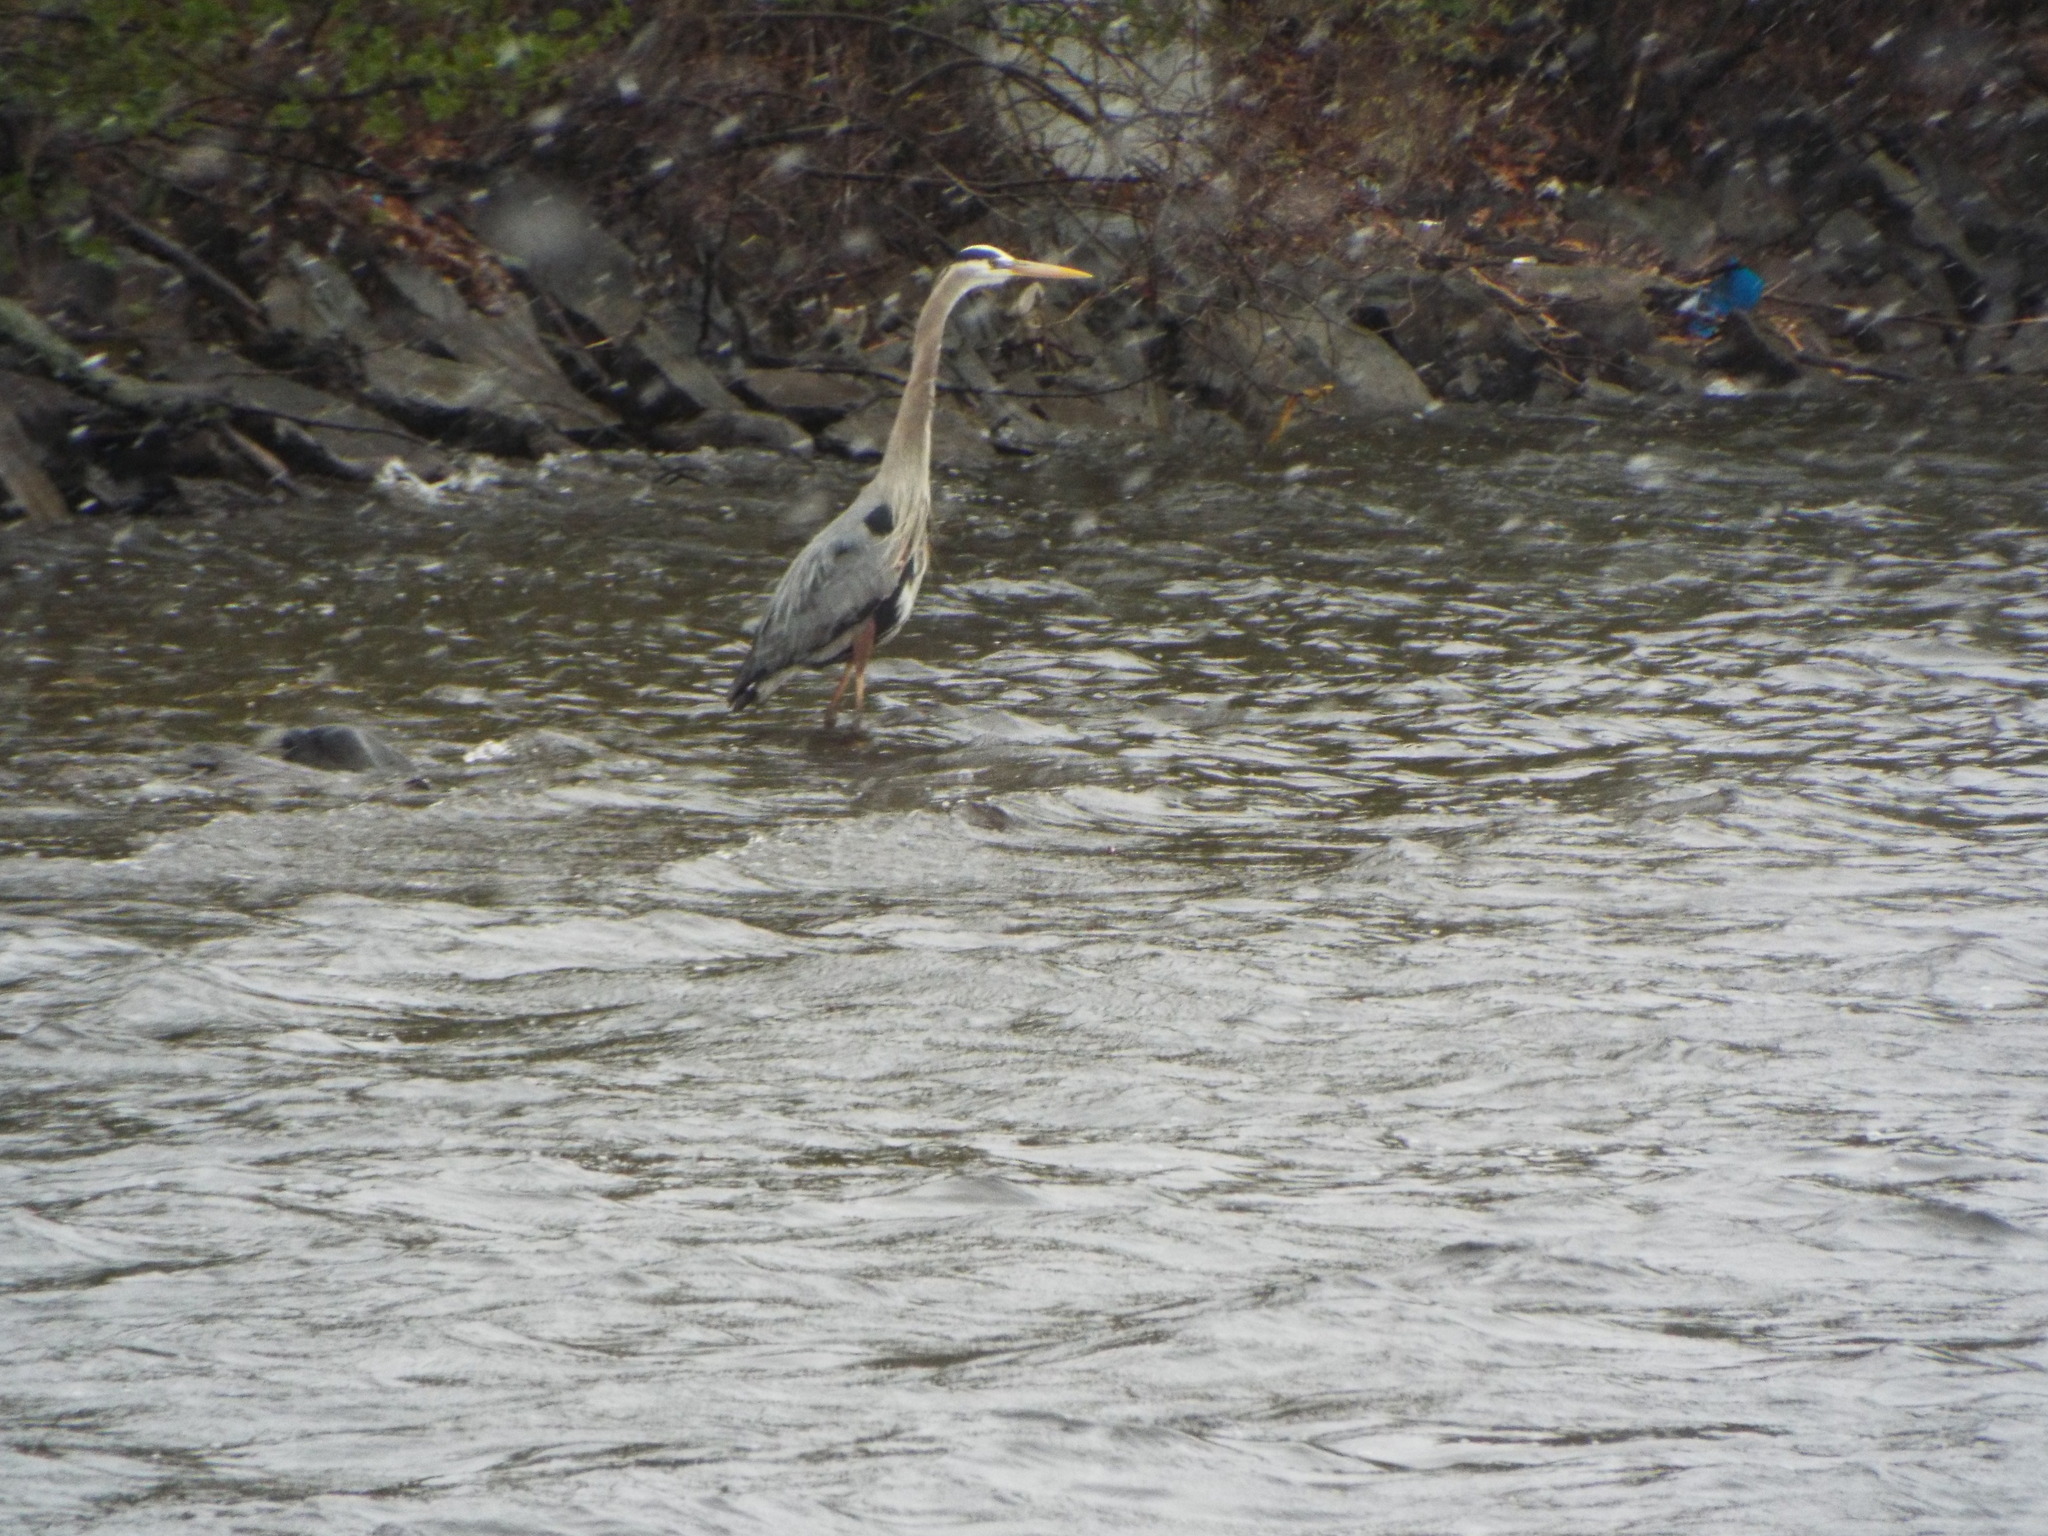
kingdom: Animalia
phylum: Chordata
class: Aves
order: Pelecaniformes
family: Ardeidae
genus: Ardea
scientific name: Ardea herodias
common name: Great blue heron
